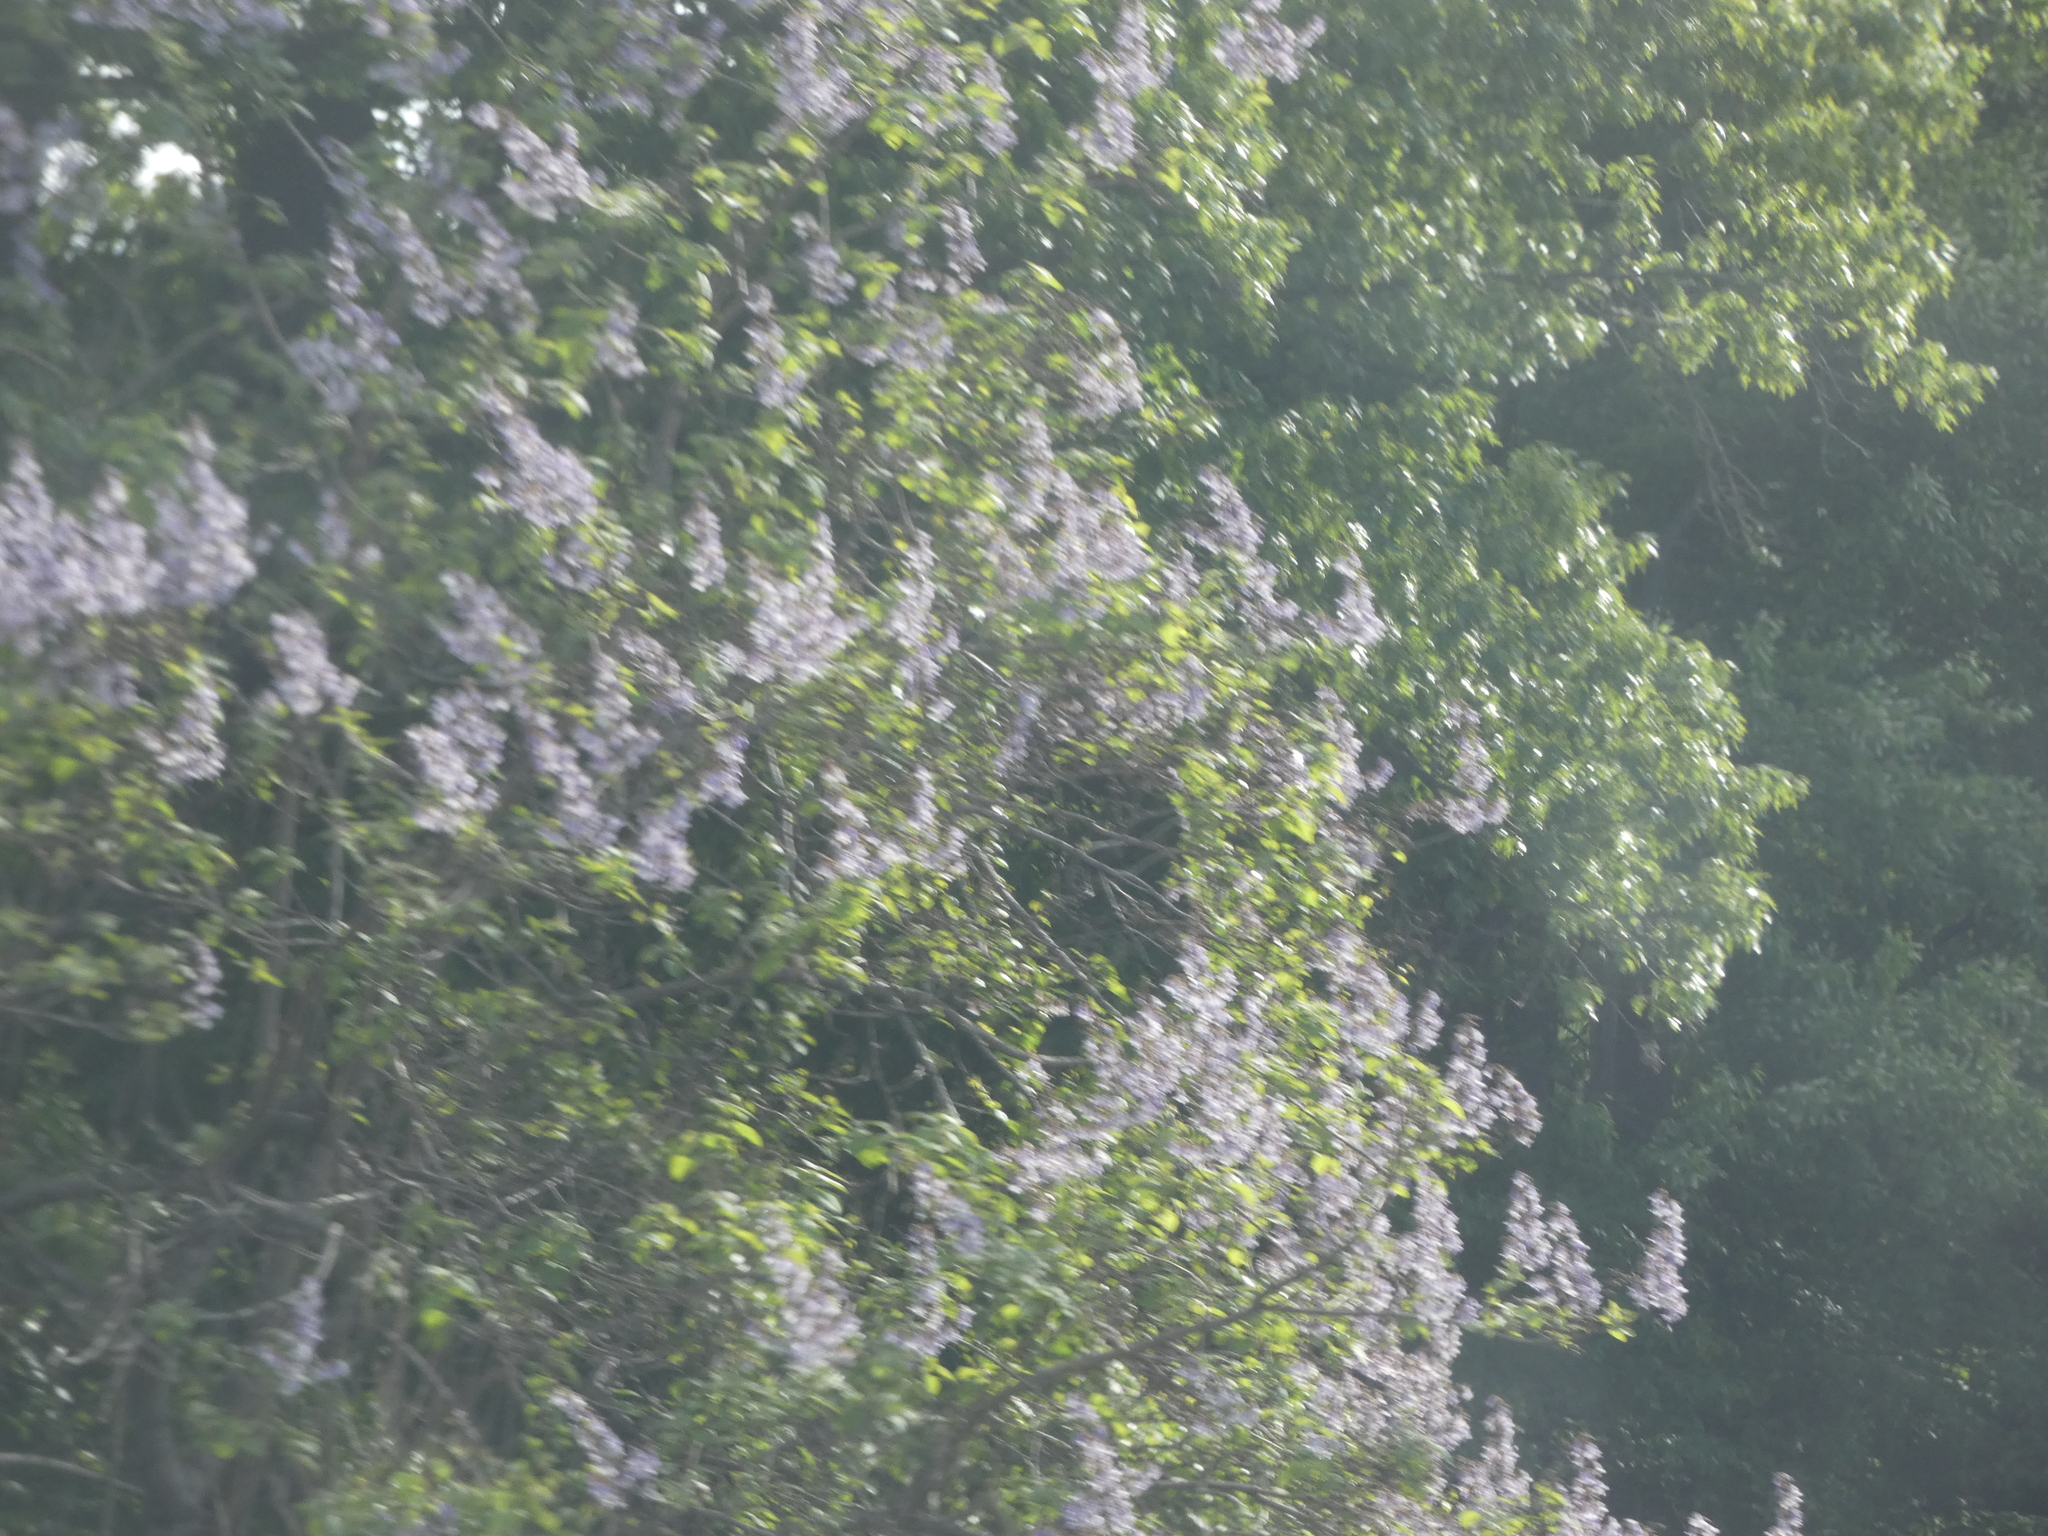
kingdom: Plantae
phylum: Tracheophyta
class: Magnoliopsida
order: Lamiales
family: Paulowniaceae
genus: Paulownia
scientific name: Paulownia tomentosa
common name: Foxglove-tree
